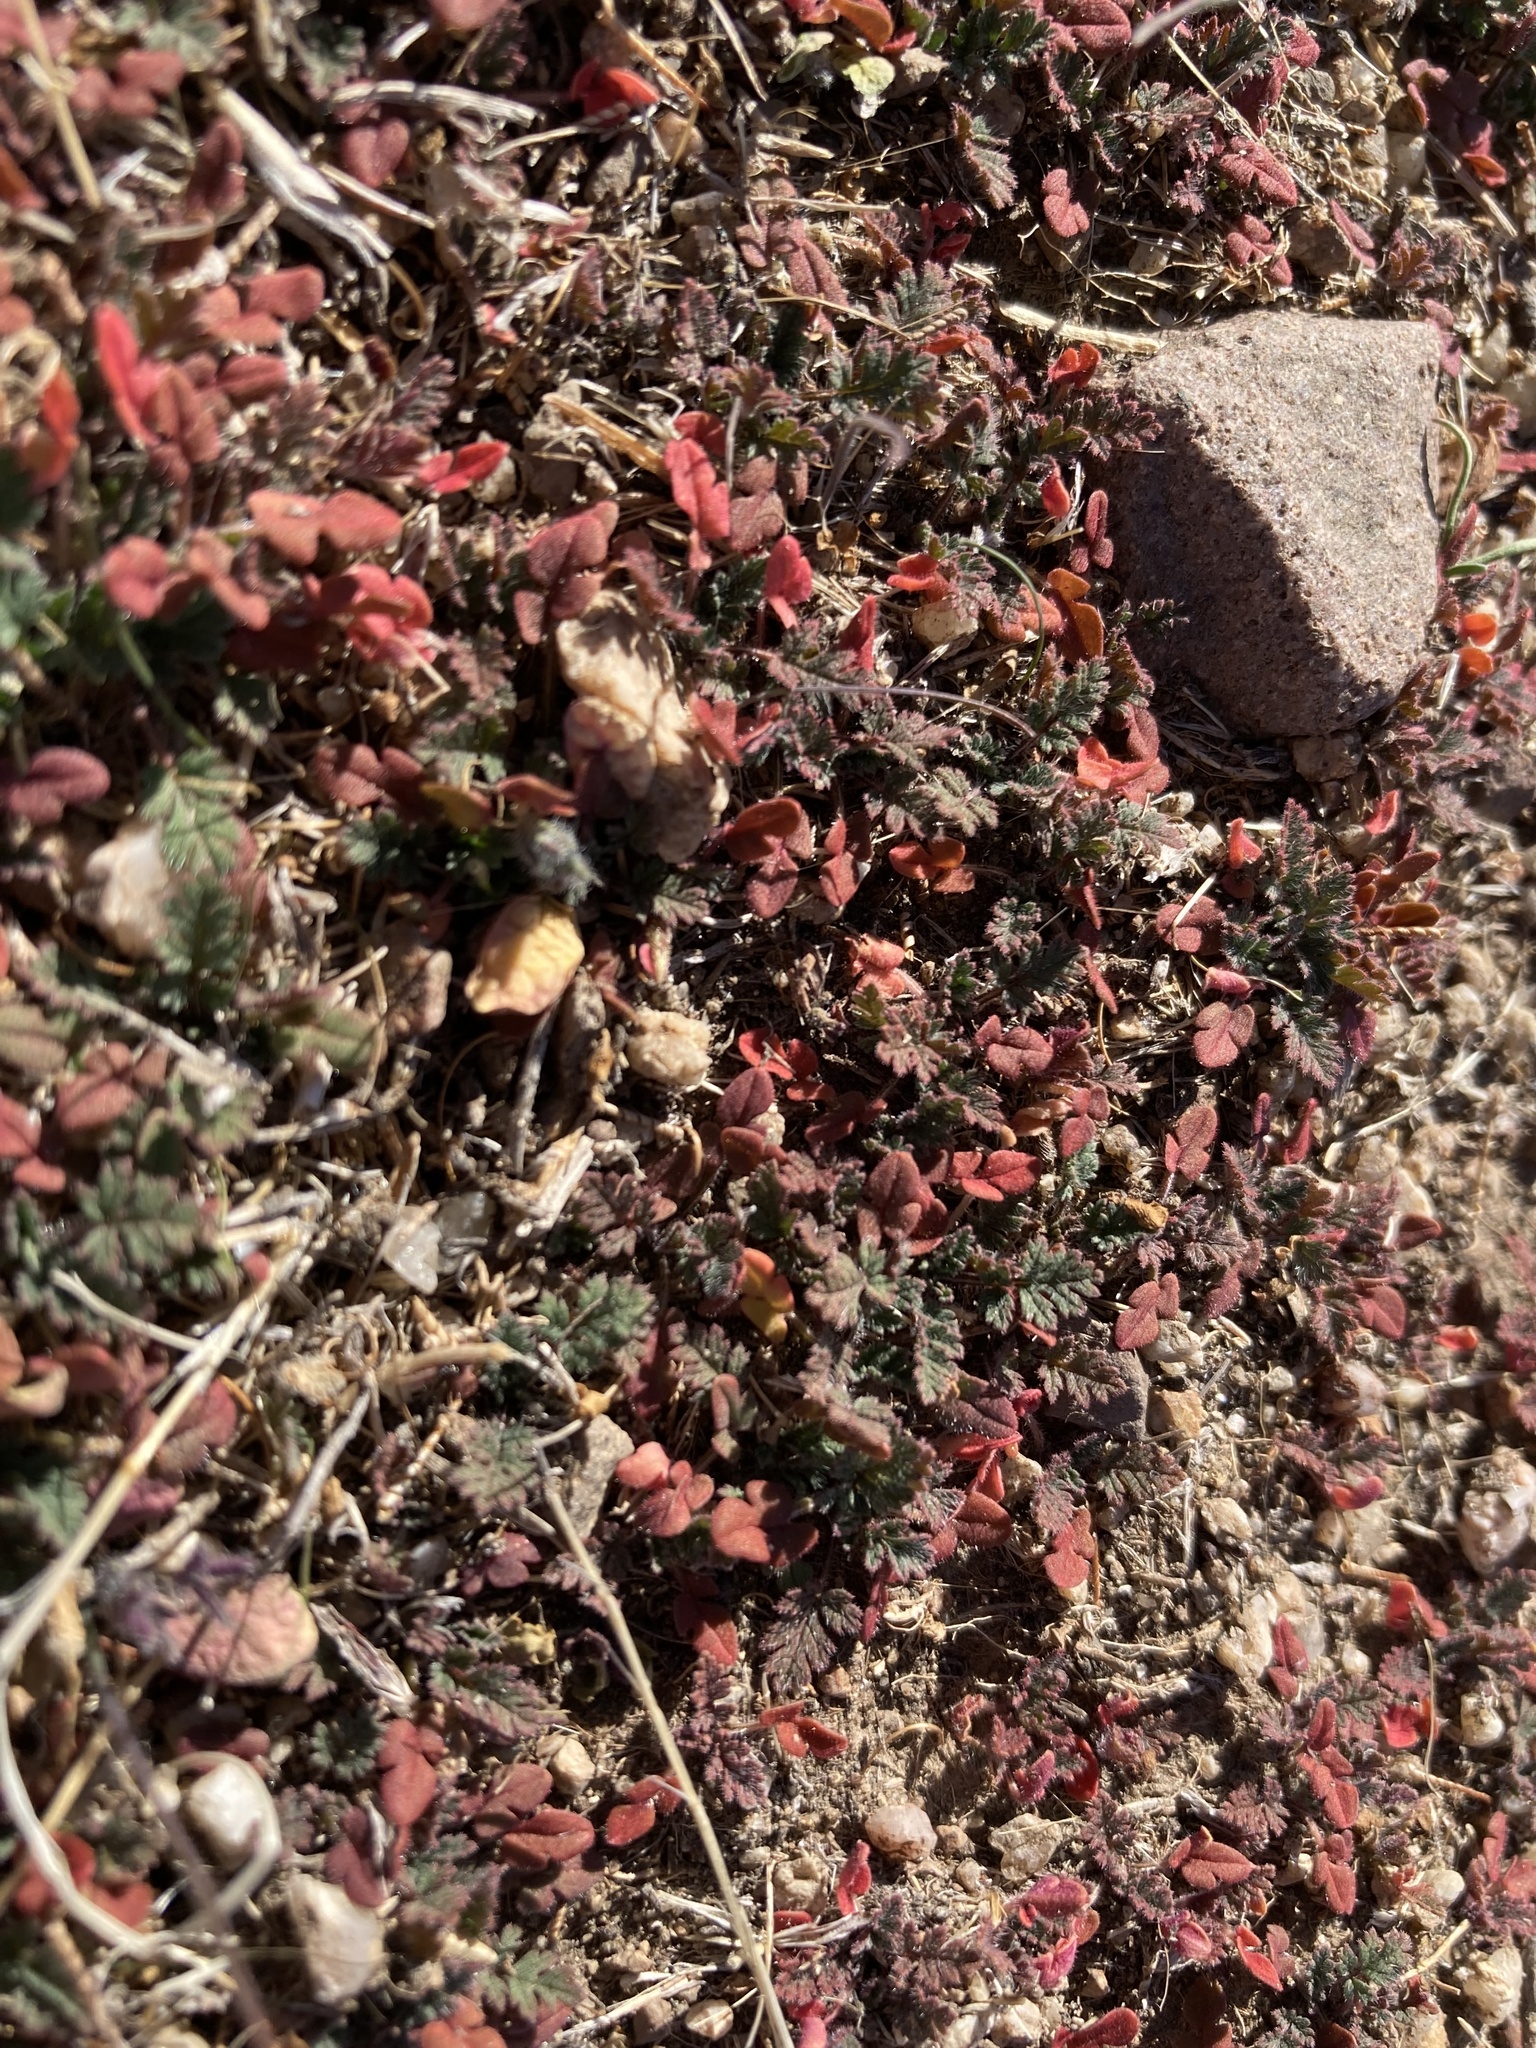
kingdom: Plantae
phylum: Tracheophyta
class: Magnoliopsida
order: Geraniales
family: Geraniaceae
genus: Erodium
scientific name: Erodium cicutarium
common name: Common stork's-bill
